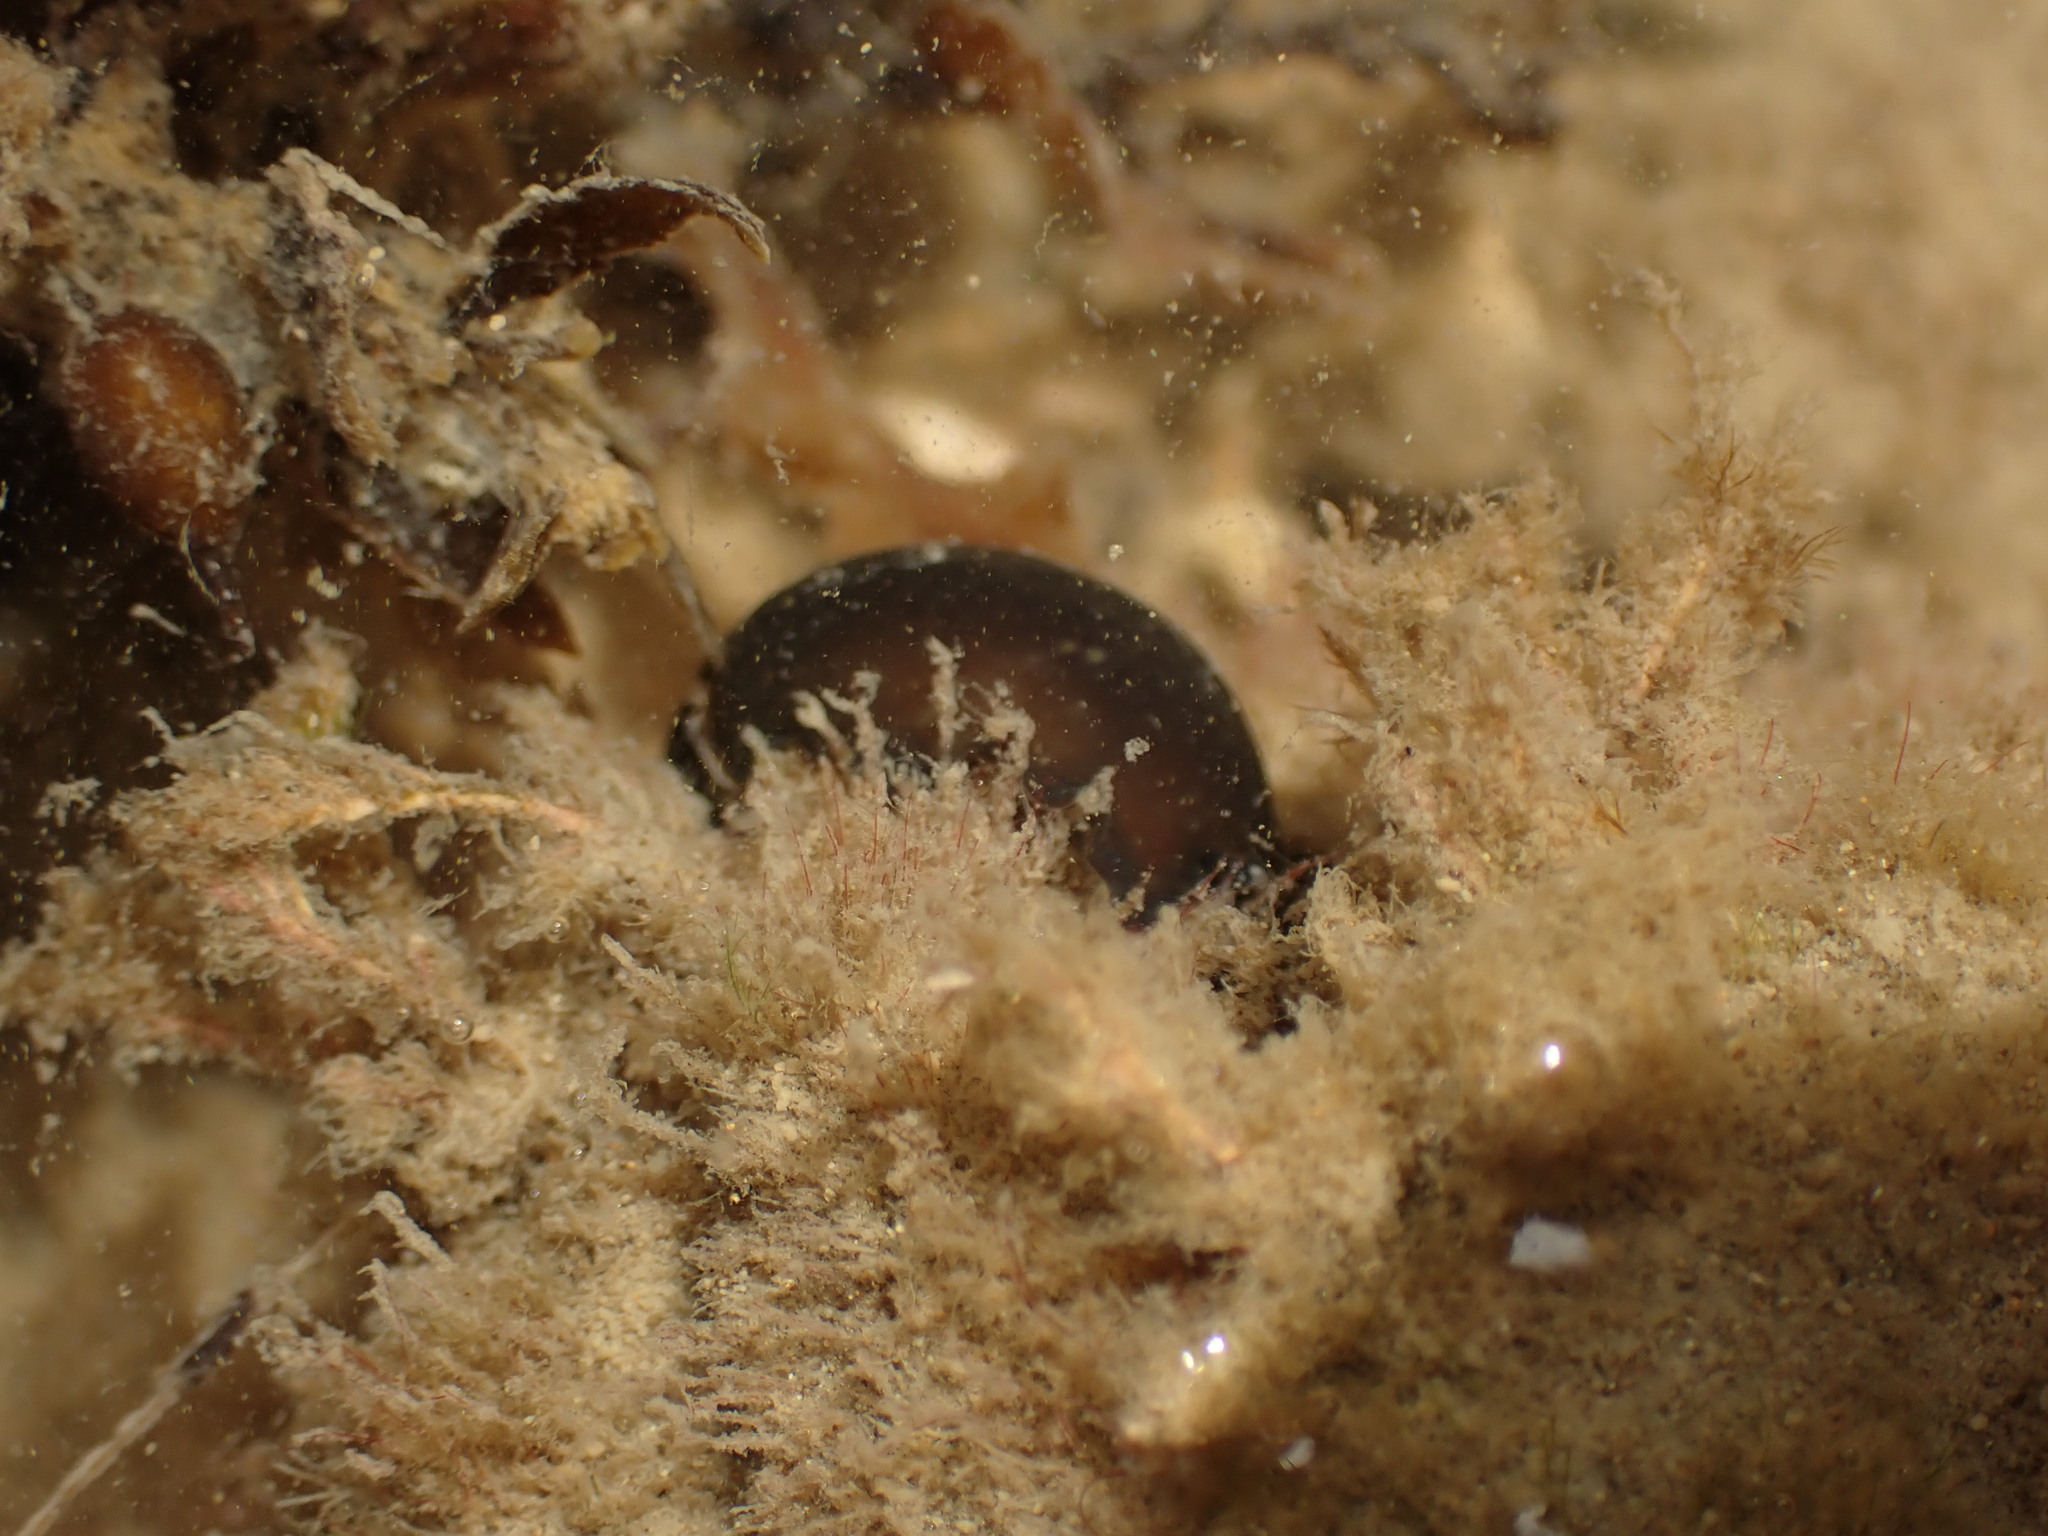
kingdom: Animalia
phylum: Mollusca
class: Gastropoda
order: Cephalaspidea
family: Aglajidae
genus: Melanochlamys
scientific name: Melanochlamys cylindrica
